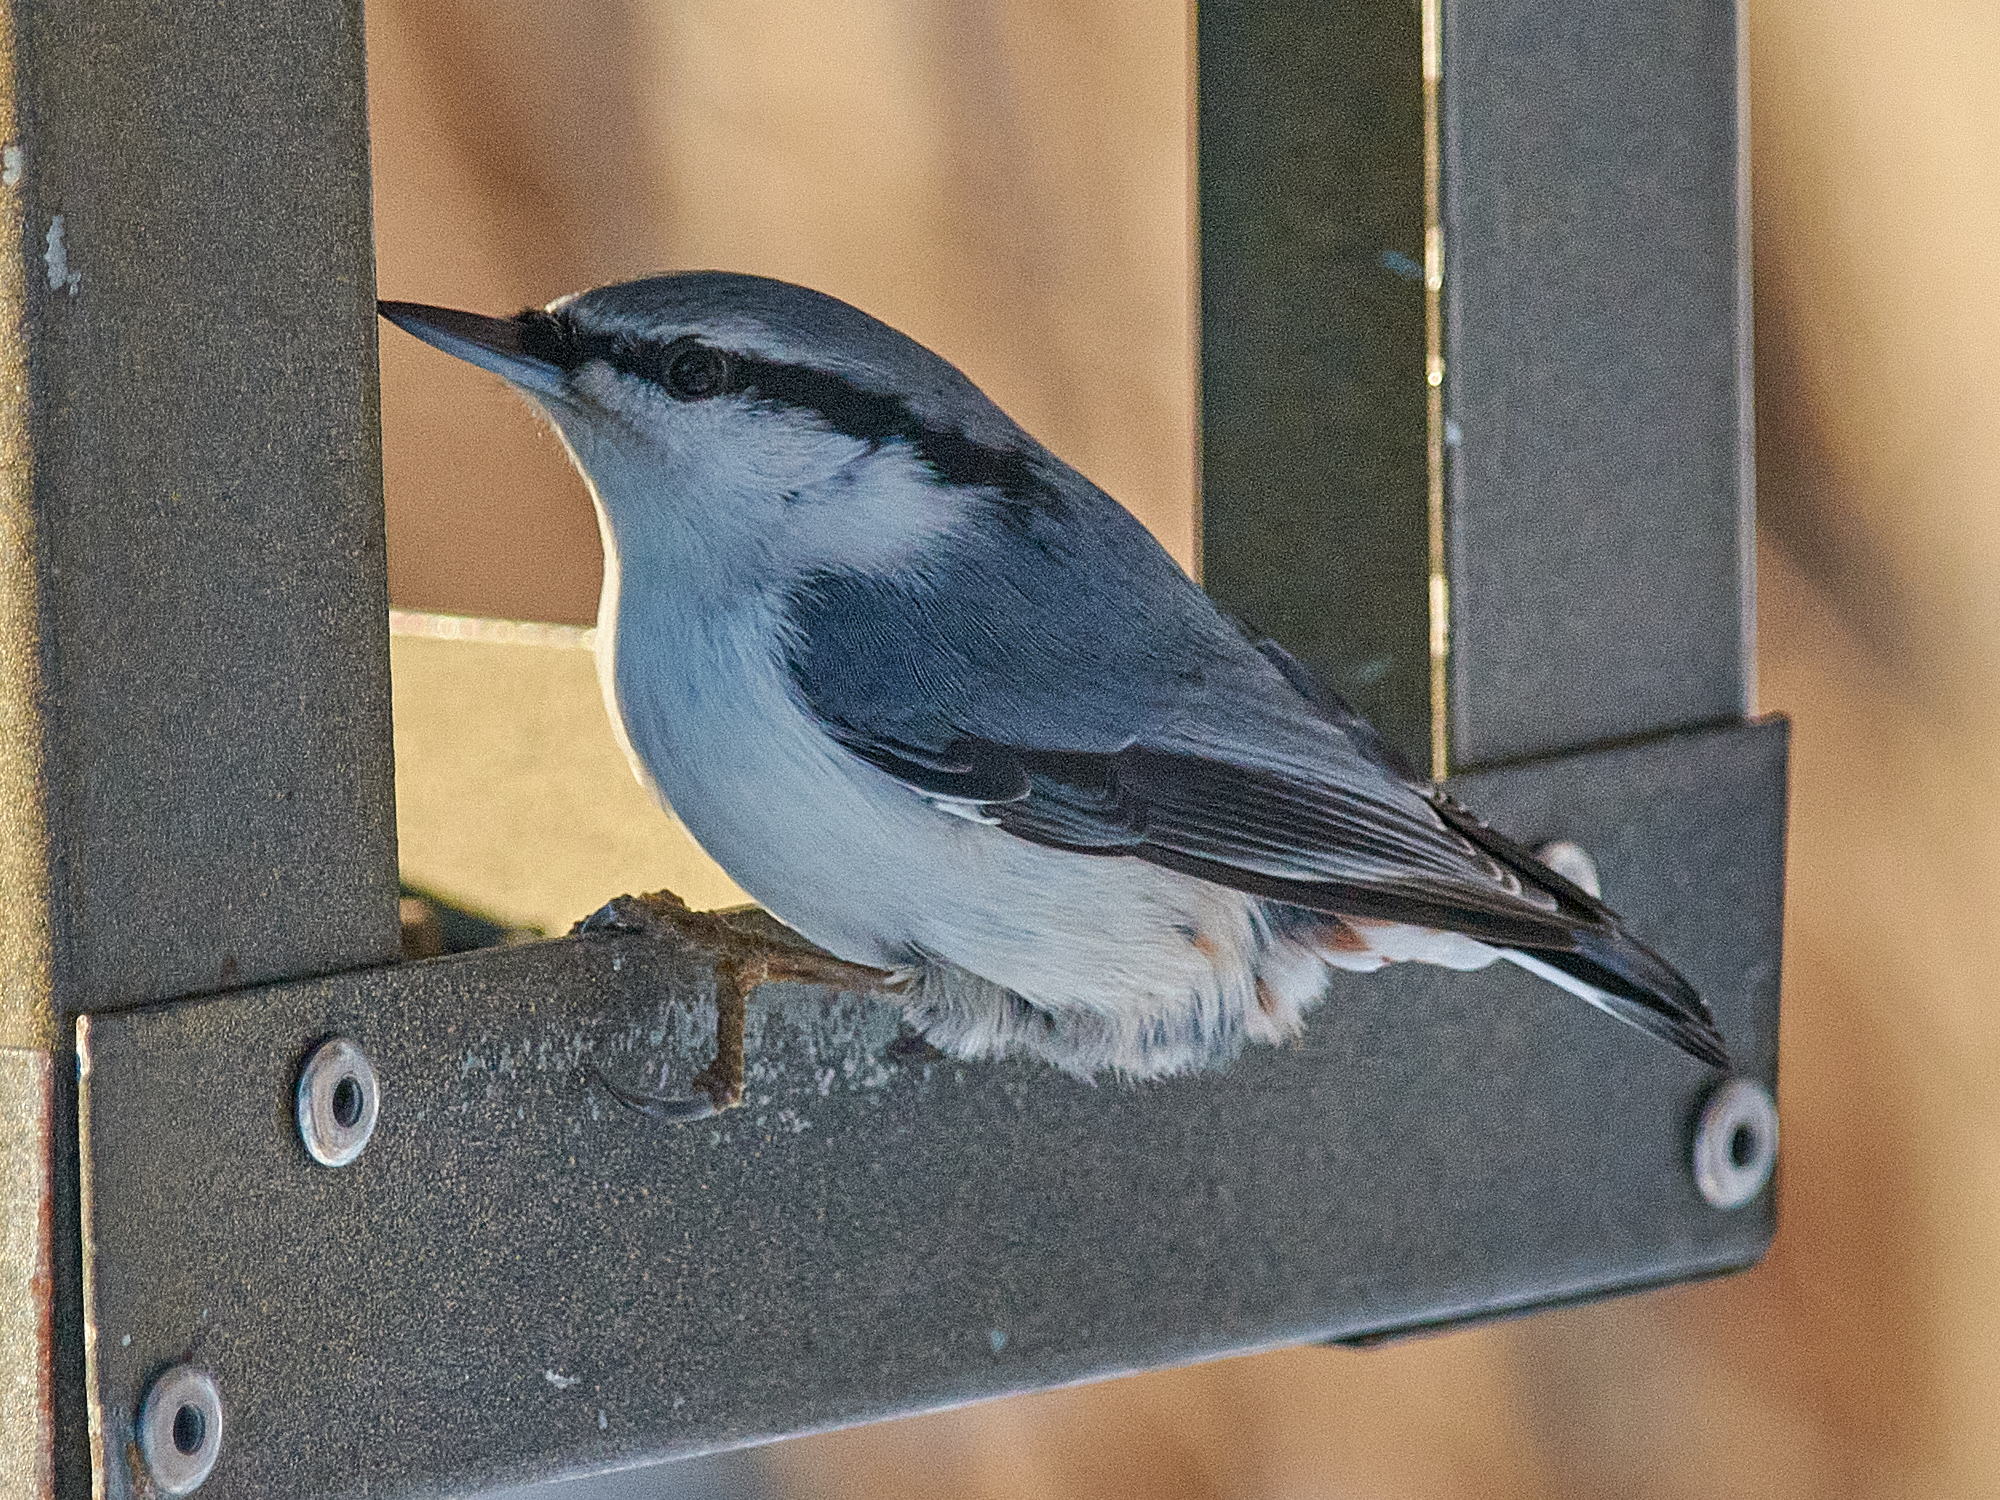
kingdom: Animalia
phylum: Chordata
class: Aves
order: Passeriformes
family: Sittidae
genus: Sitta
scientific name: Sitta europaea
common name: Eurasian nuthatch
